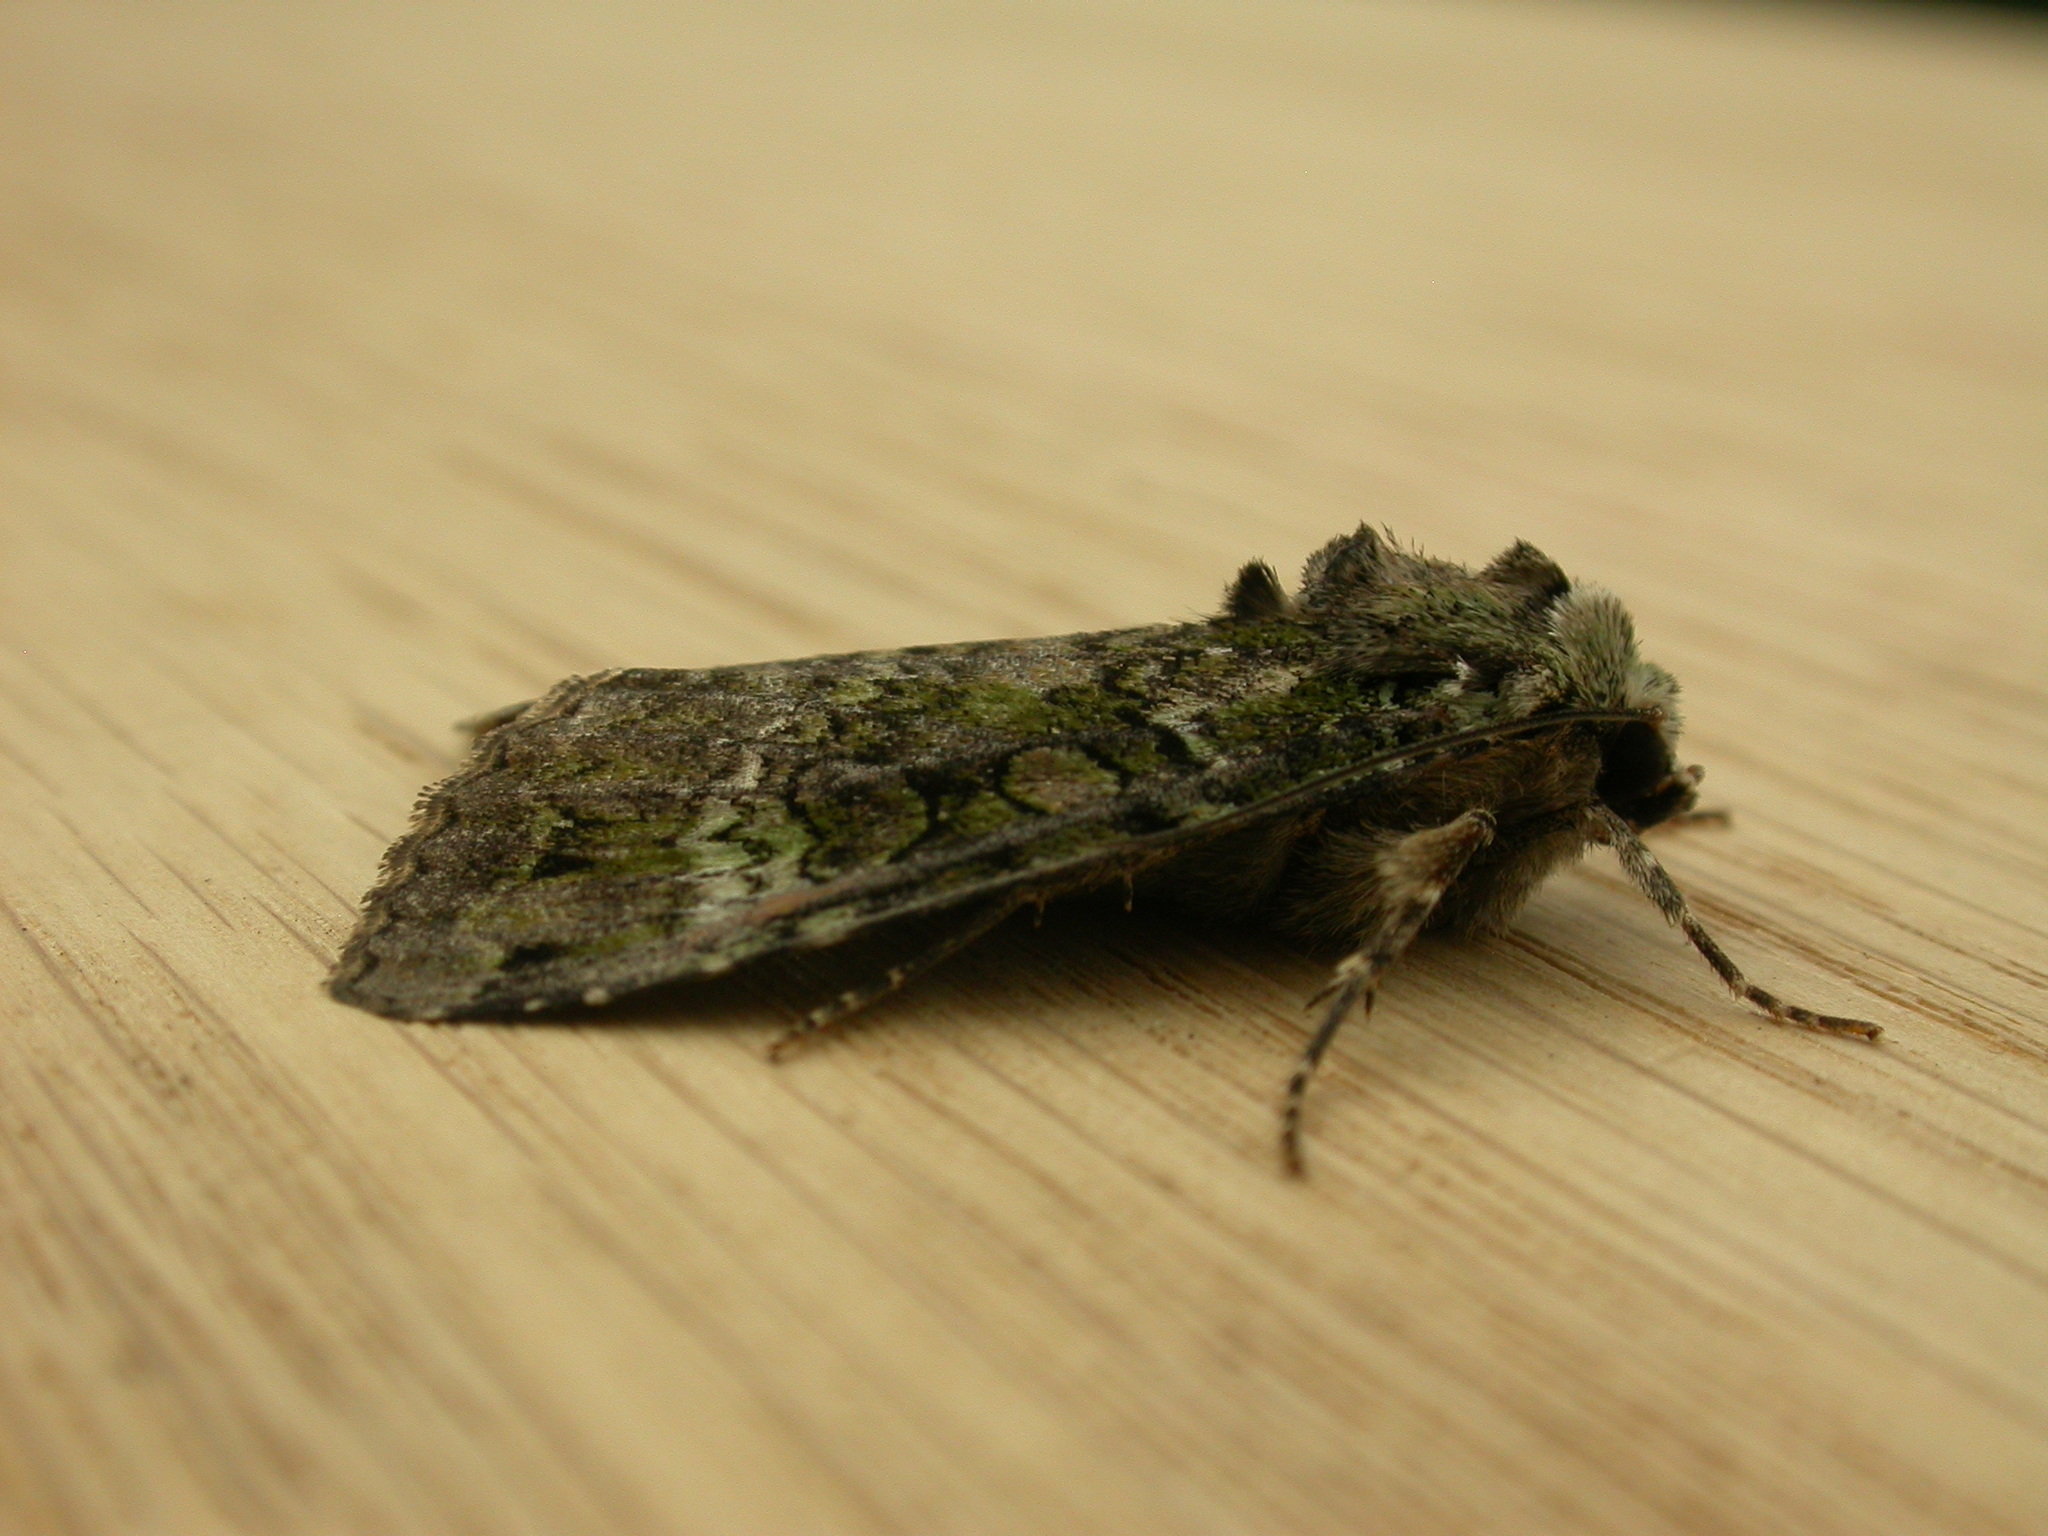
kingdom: Animalia
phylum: Arthropoda
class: Insecta
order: Lepidoptera
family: Noctuidae
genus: Anaplectoides
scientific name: Anaplectoides prasina
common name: Green arches
